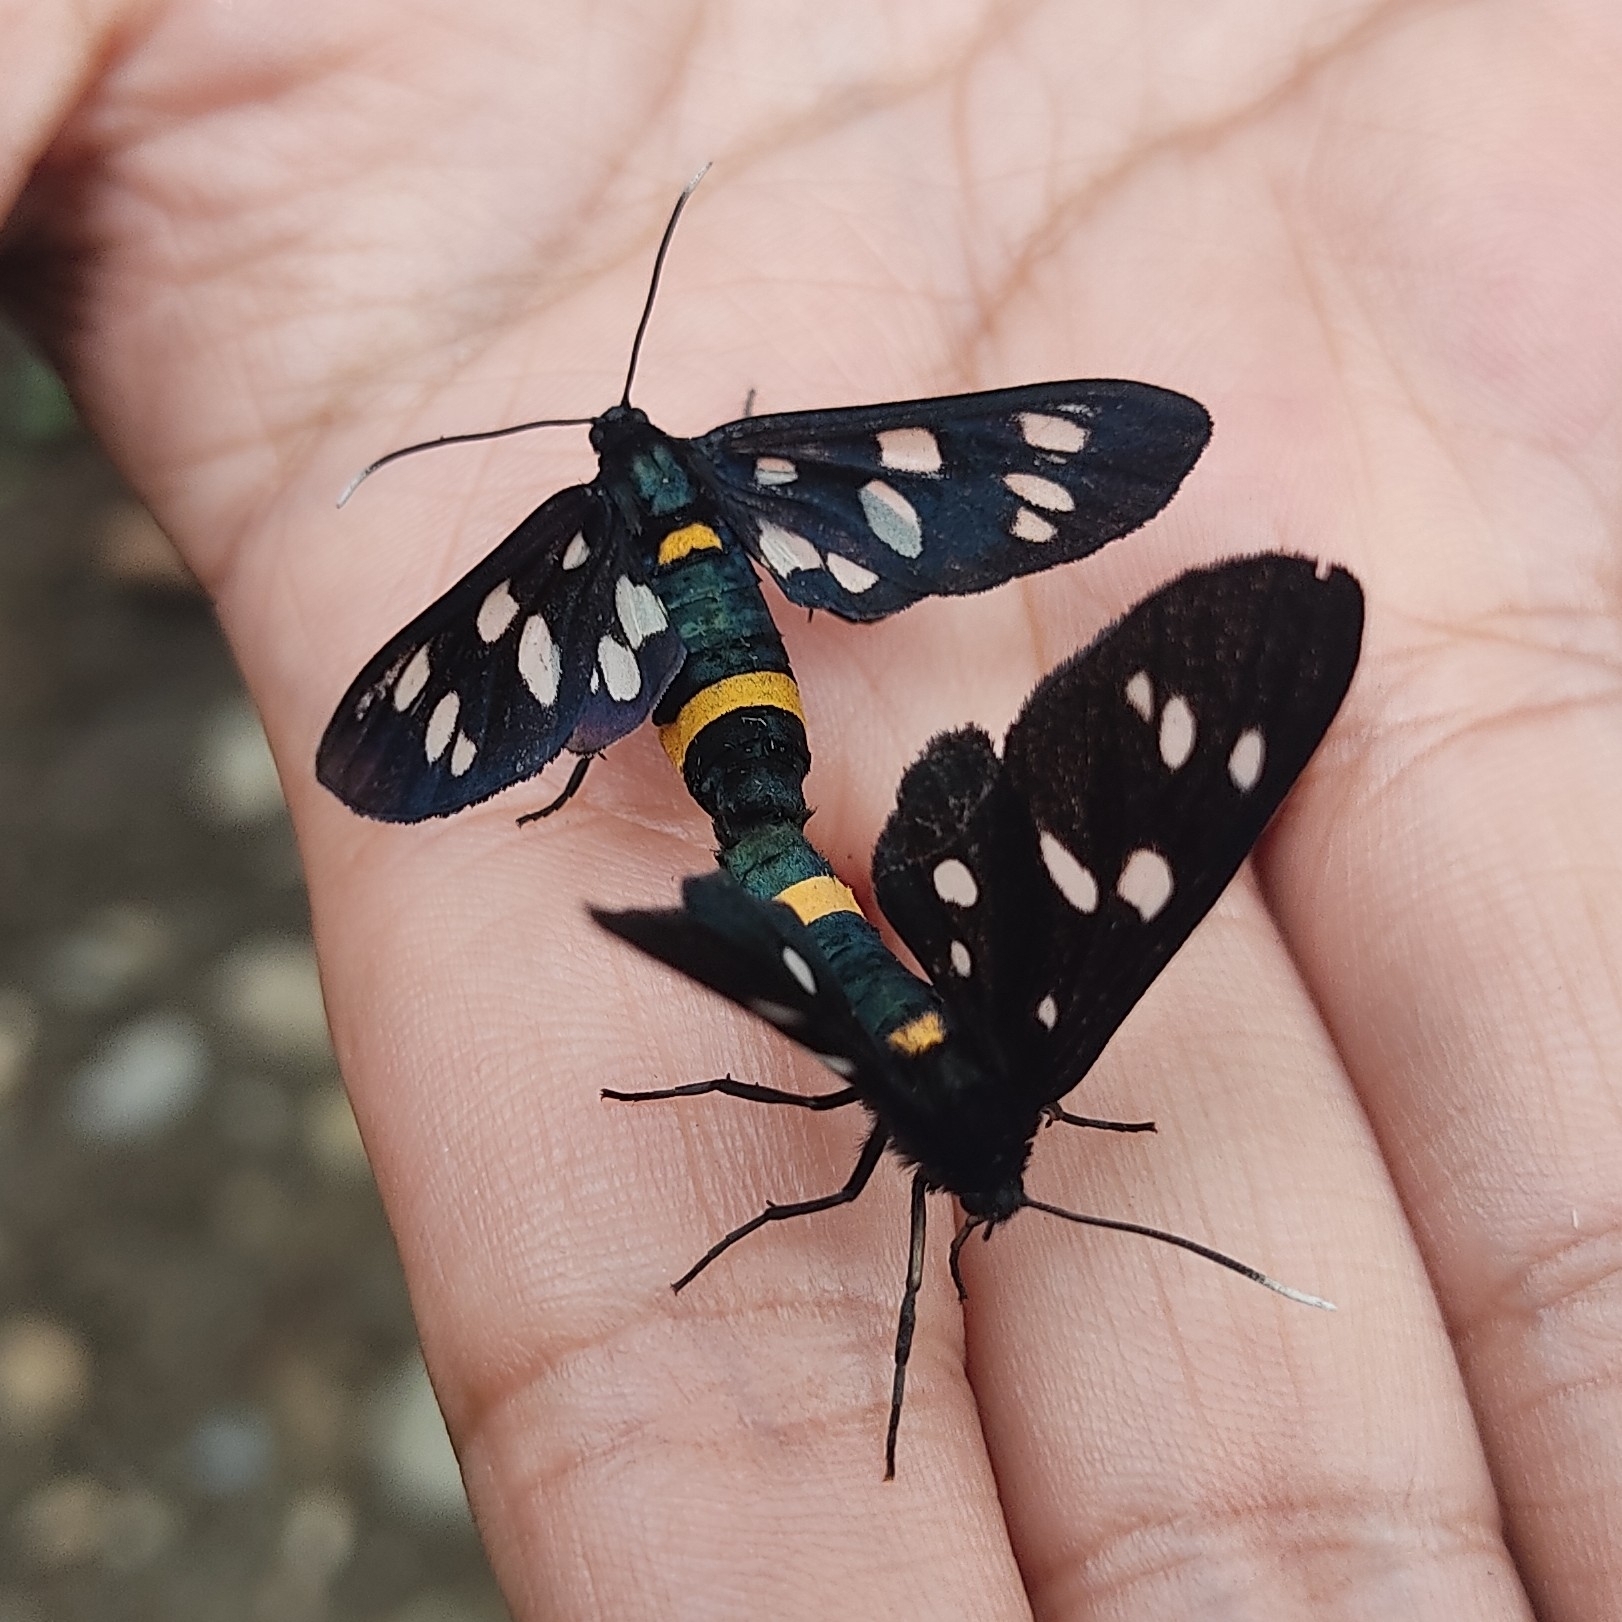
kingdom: Animalia
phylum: Arthropoda
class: Insecta
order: Lepidoptera
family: Erebidae
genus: Amata
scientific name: Amata phegea
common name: Nine-spotted
